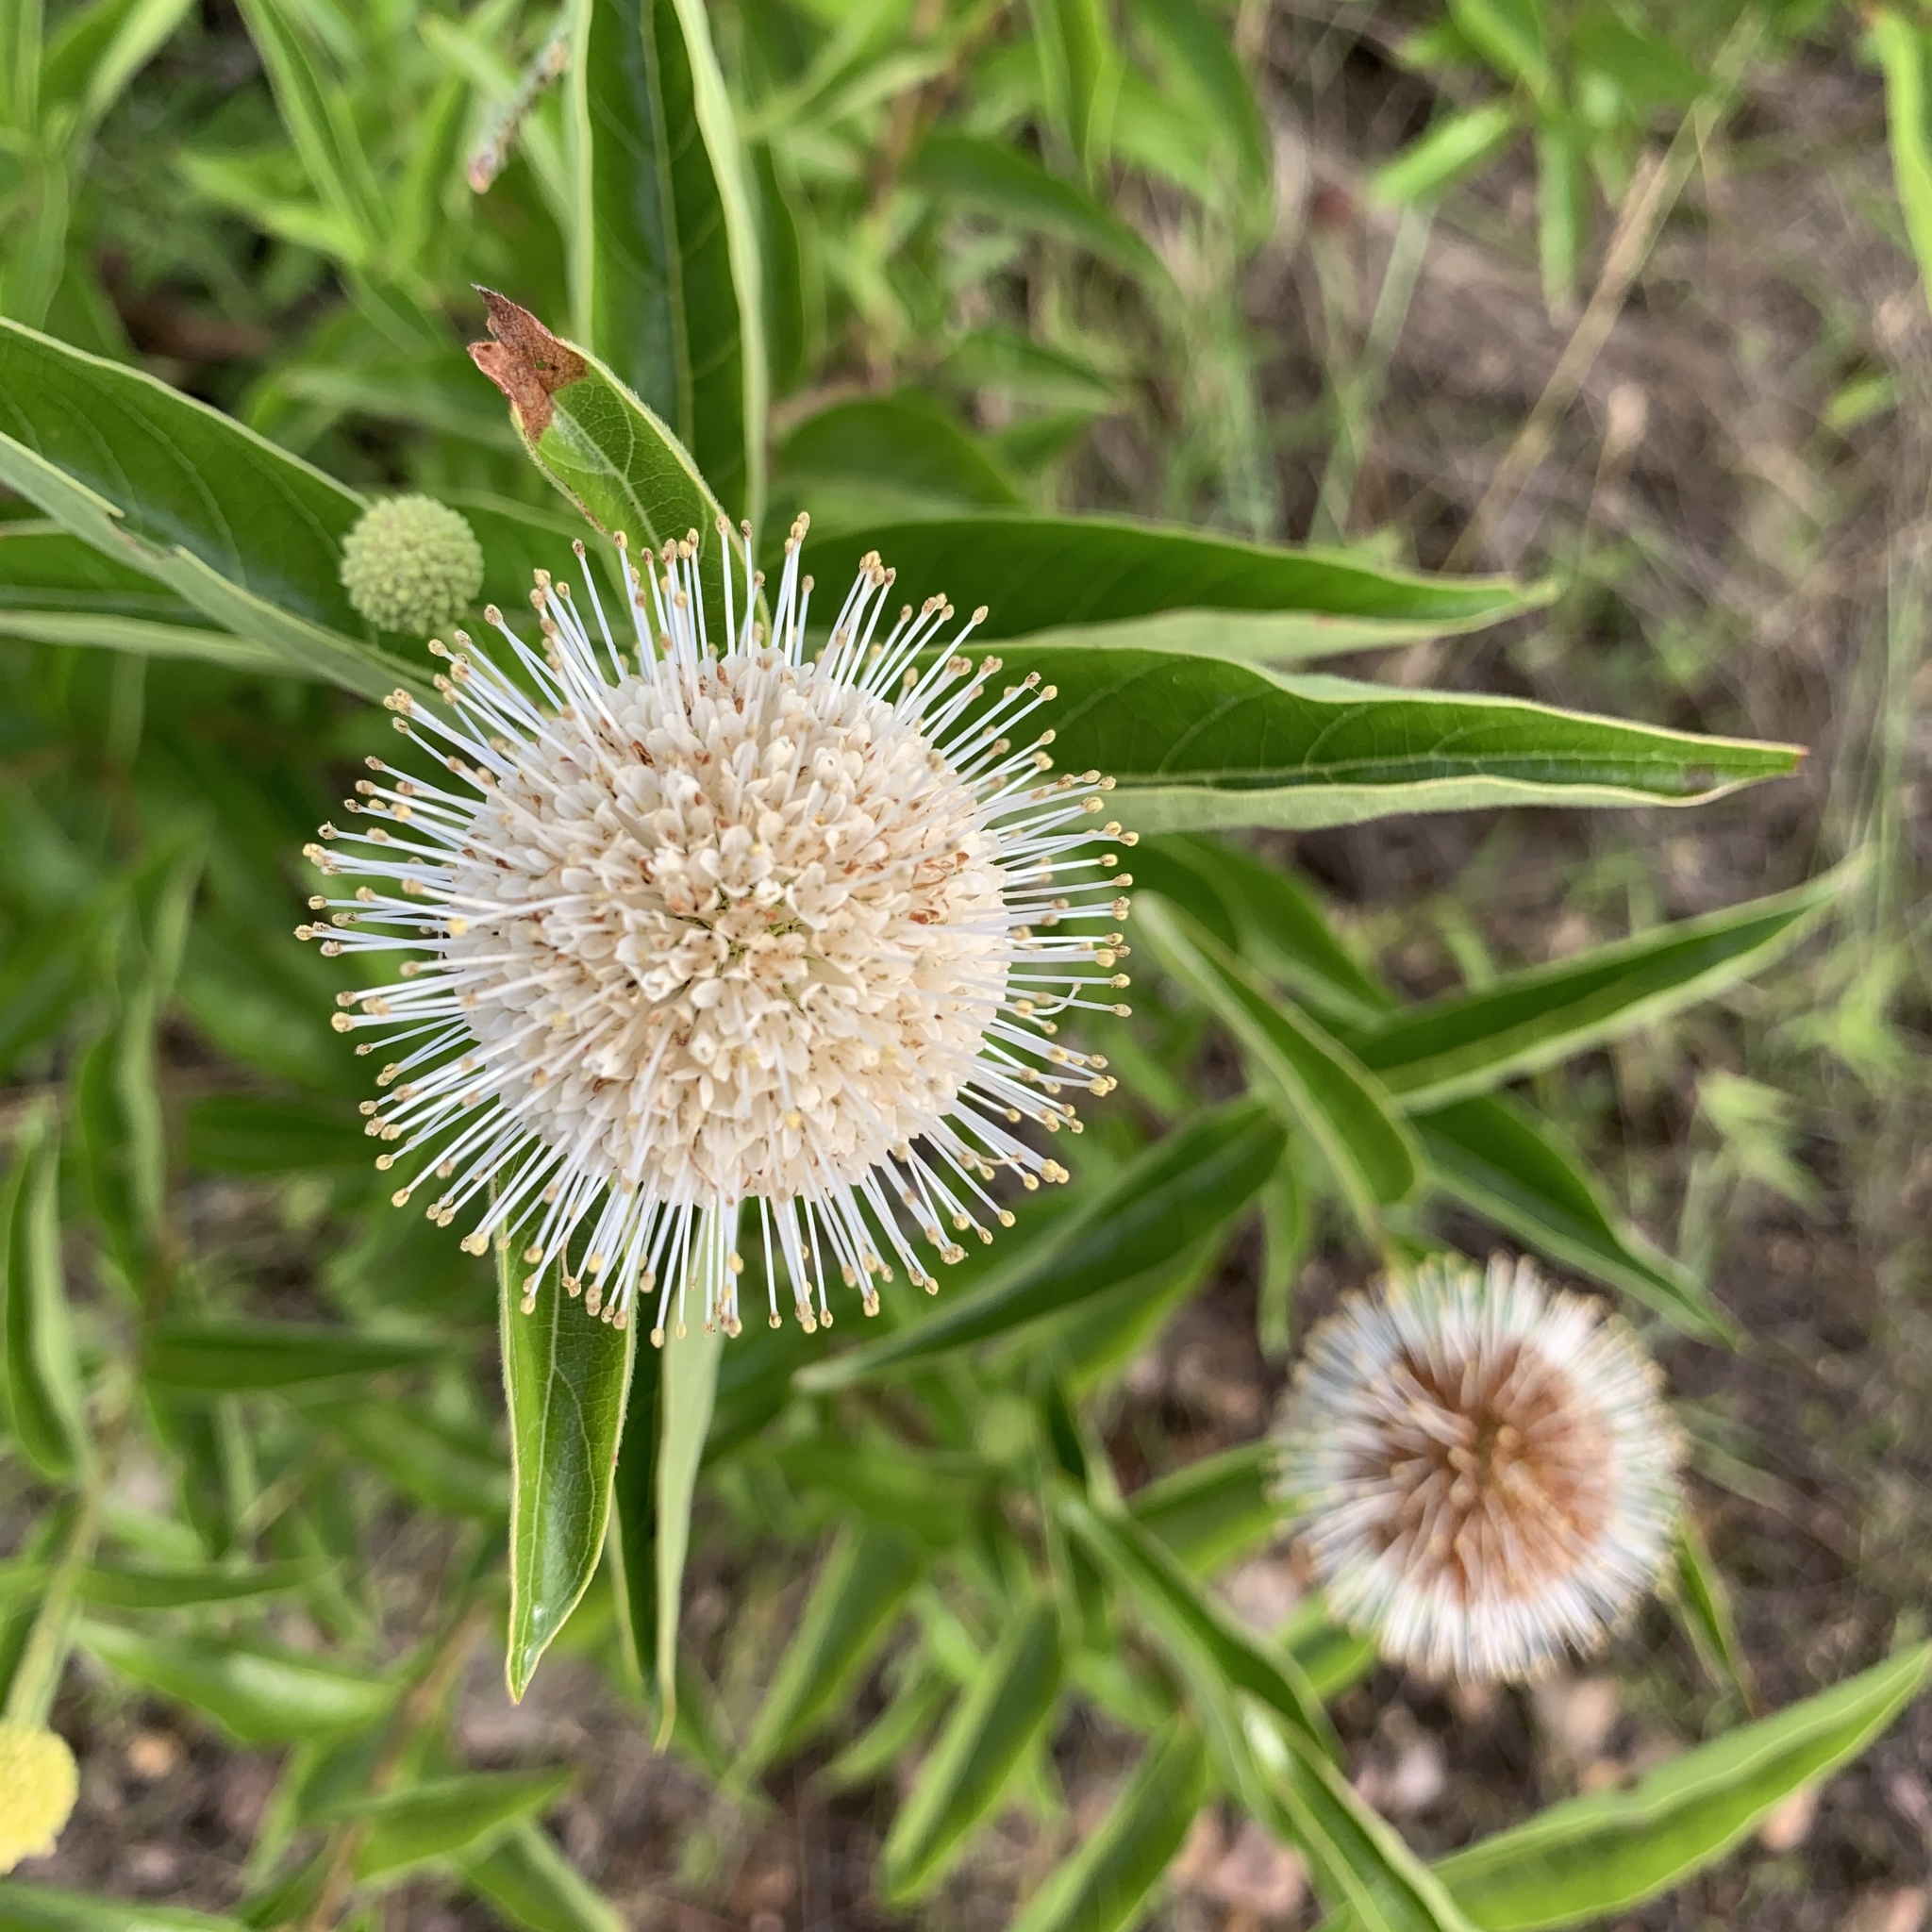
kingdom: Plantae
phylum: Tracheophyta
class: Magnoliopsida
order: Gentianales
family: Rubiaceae
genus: Cephalanthus
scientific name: Cephalanthus occidentalis
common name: Button-willow
